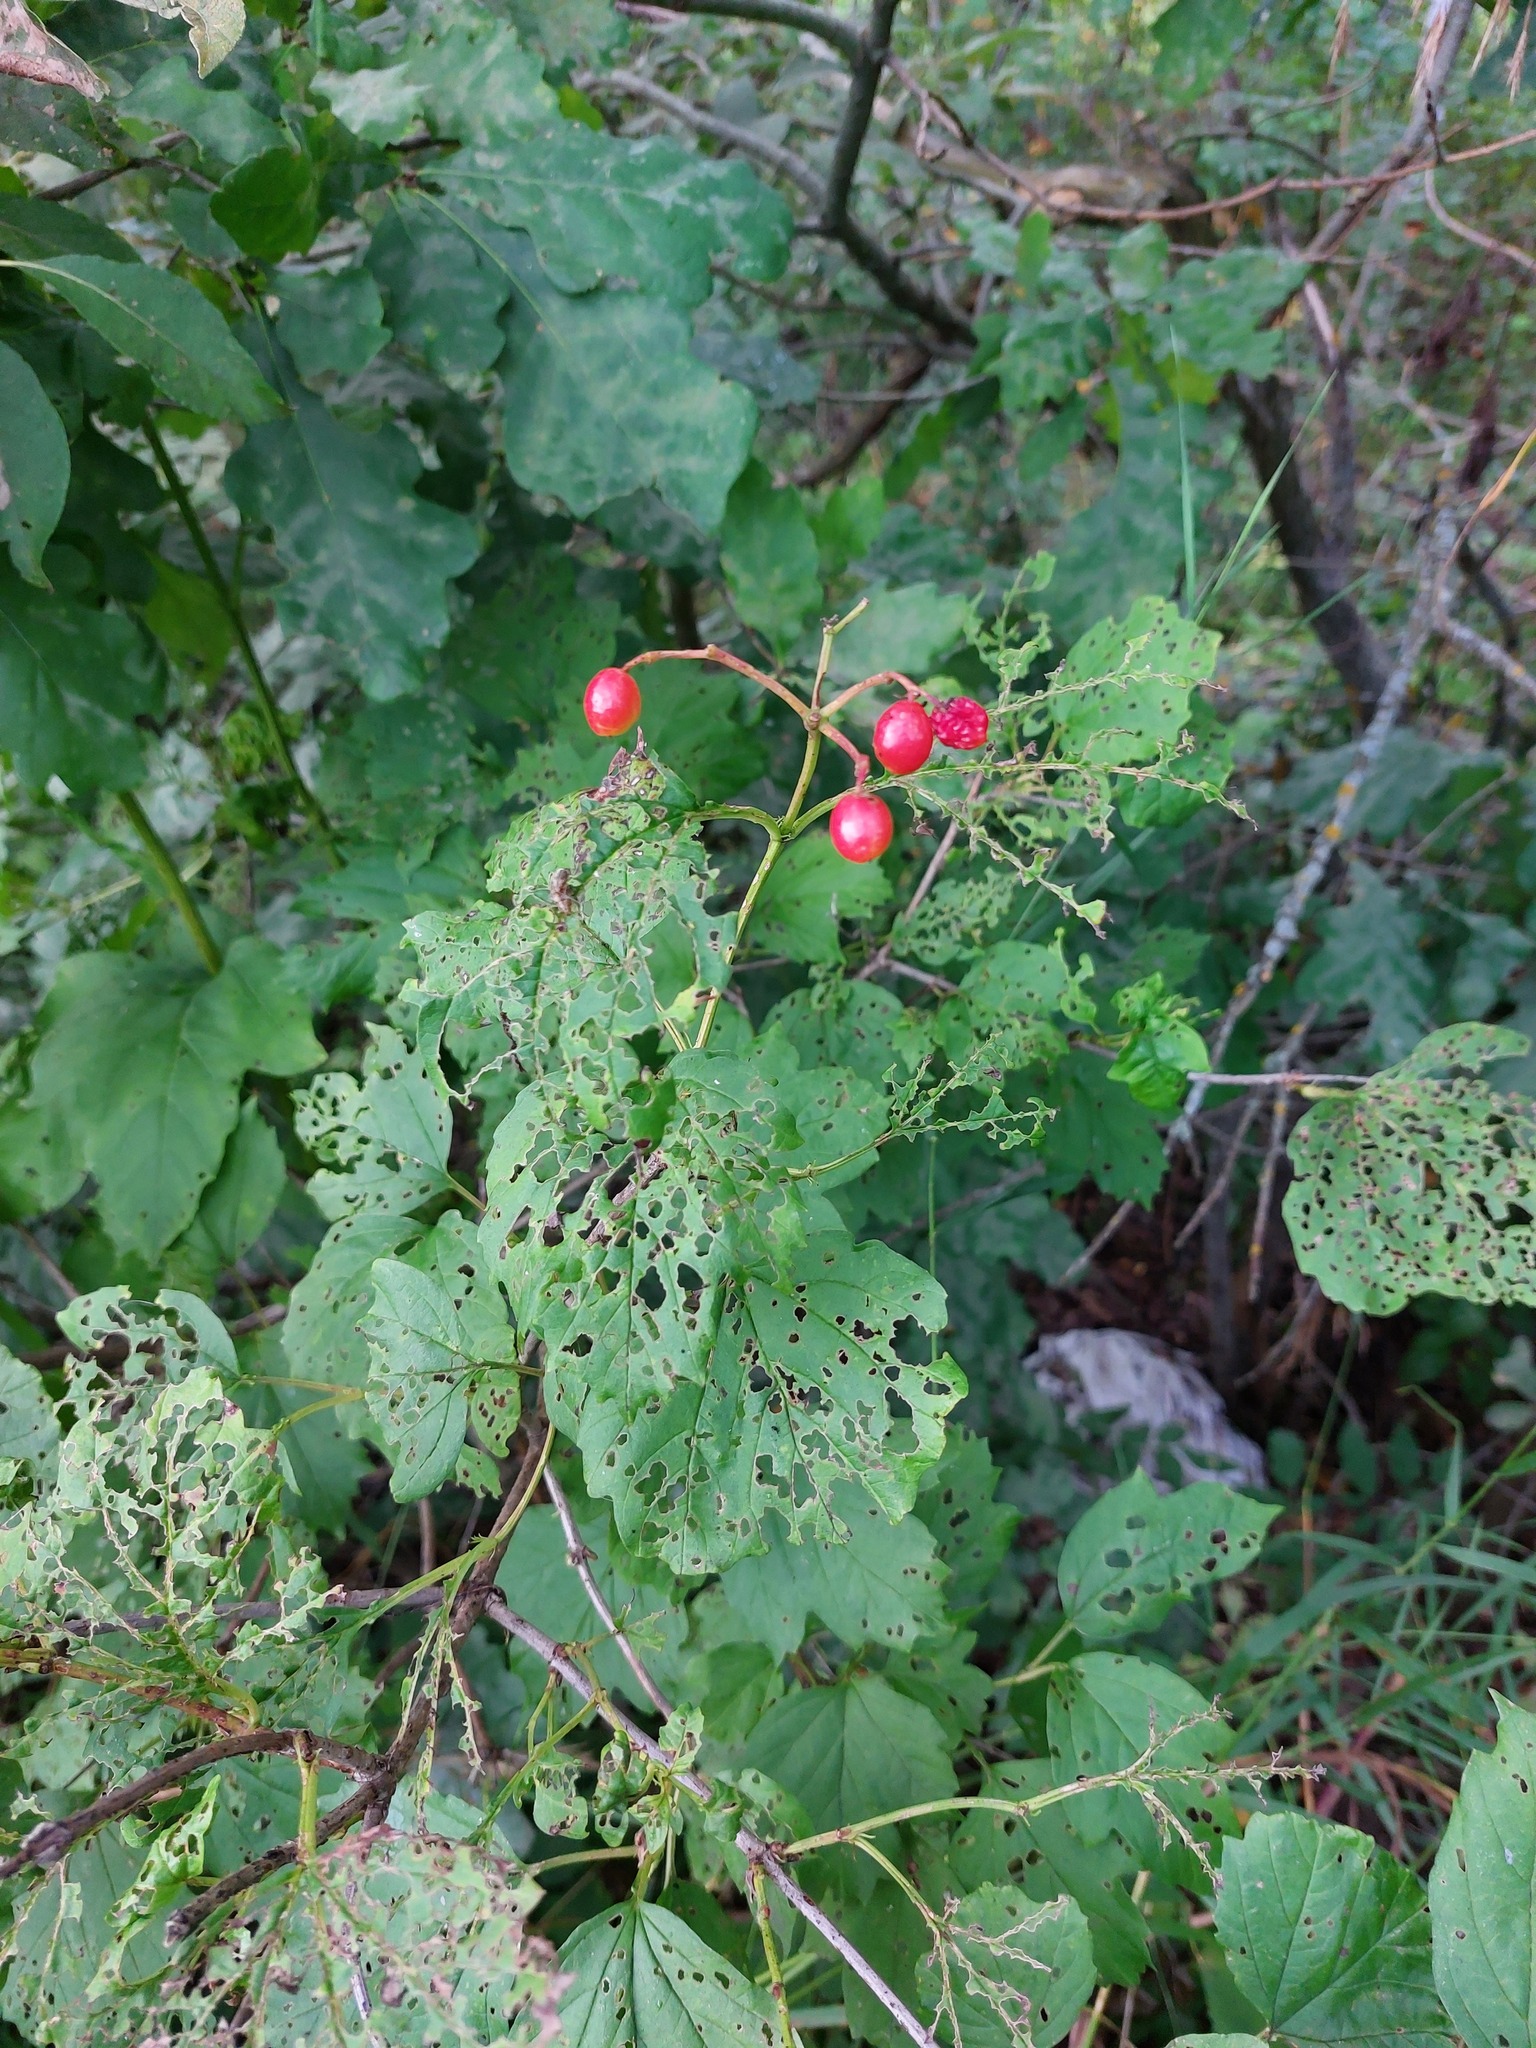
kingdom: Plantae
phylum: Tracheophyta
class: Magnoliopsida
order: Dipsacales
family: Viburnaceae
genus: Viburnum
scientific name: Viburnum opulus
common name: Guelder-rose
